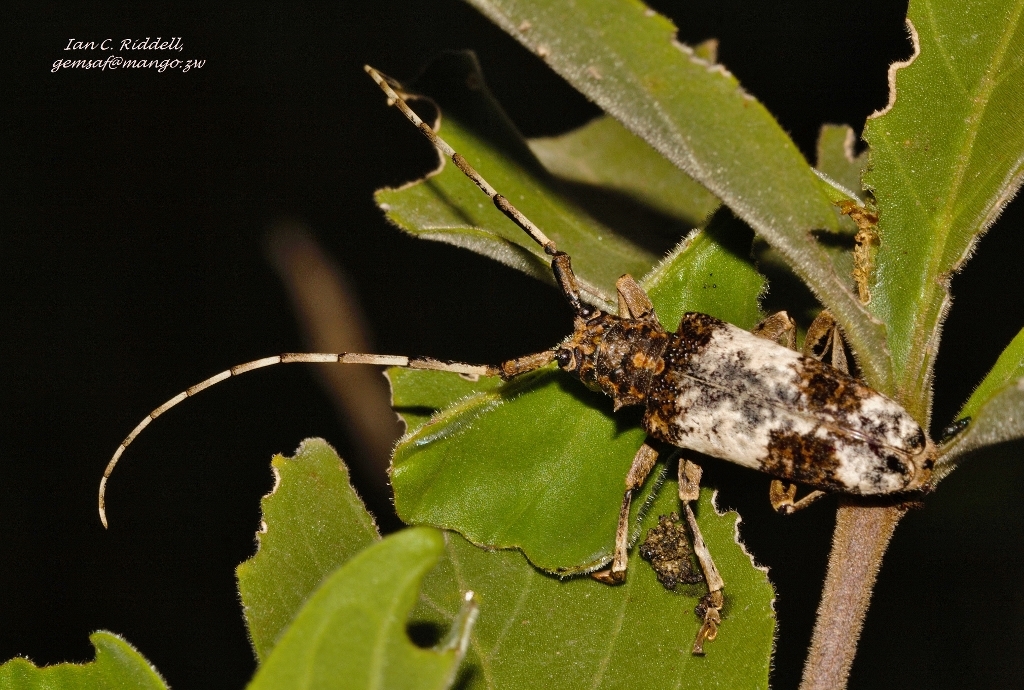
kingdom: Animalia
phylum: Arthropoda
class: Insecta
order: Coleoptera
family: Cerambycidae
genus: Anthores
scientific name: Anthores leuconotus
